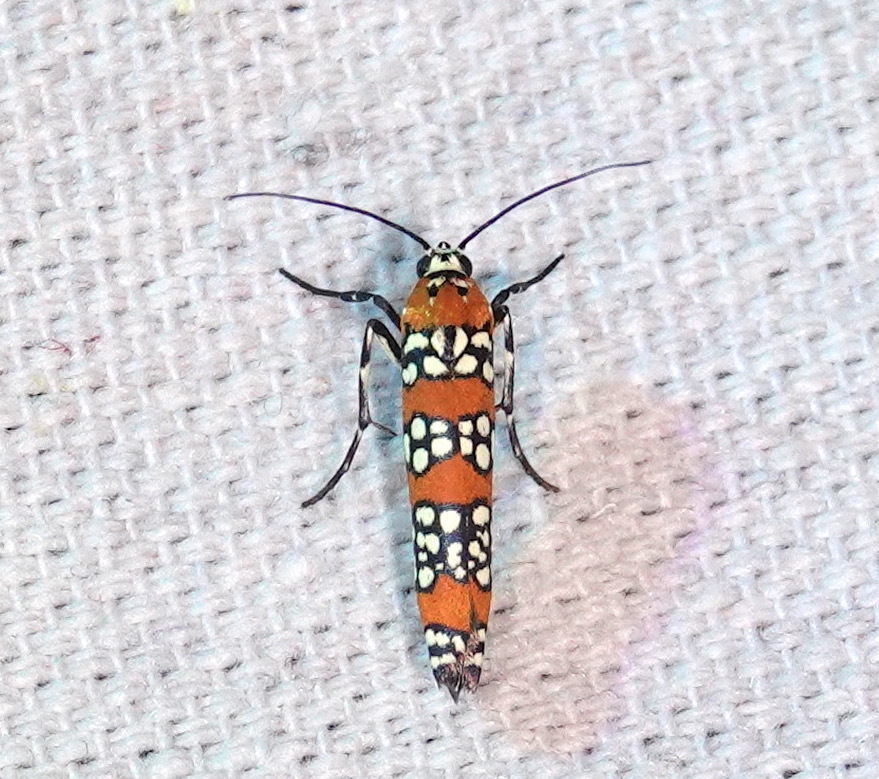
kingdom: Animalia
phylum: Arthropoda
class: Insecta
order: Lepidoptera
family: Attevidae
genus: Atteva
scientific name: Atteva punctella
